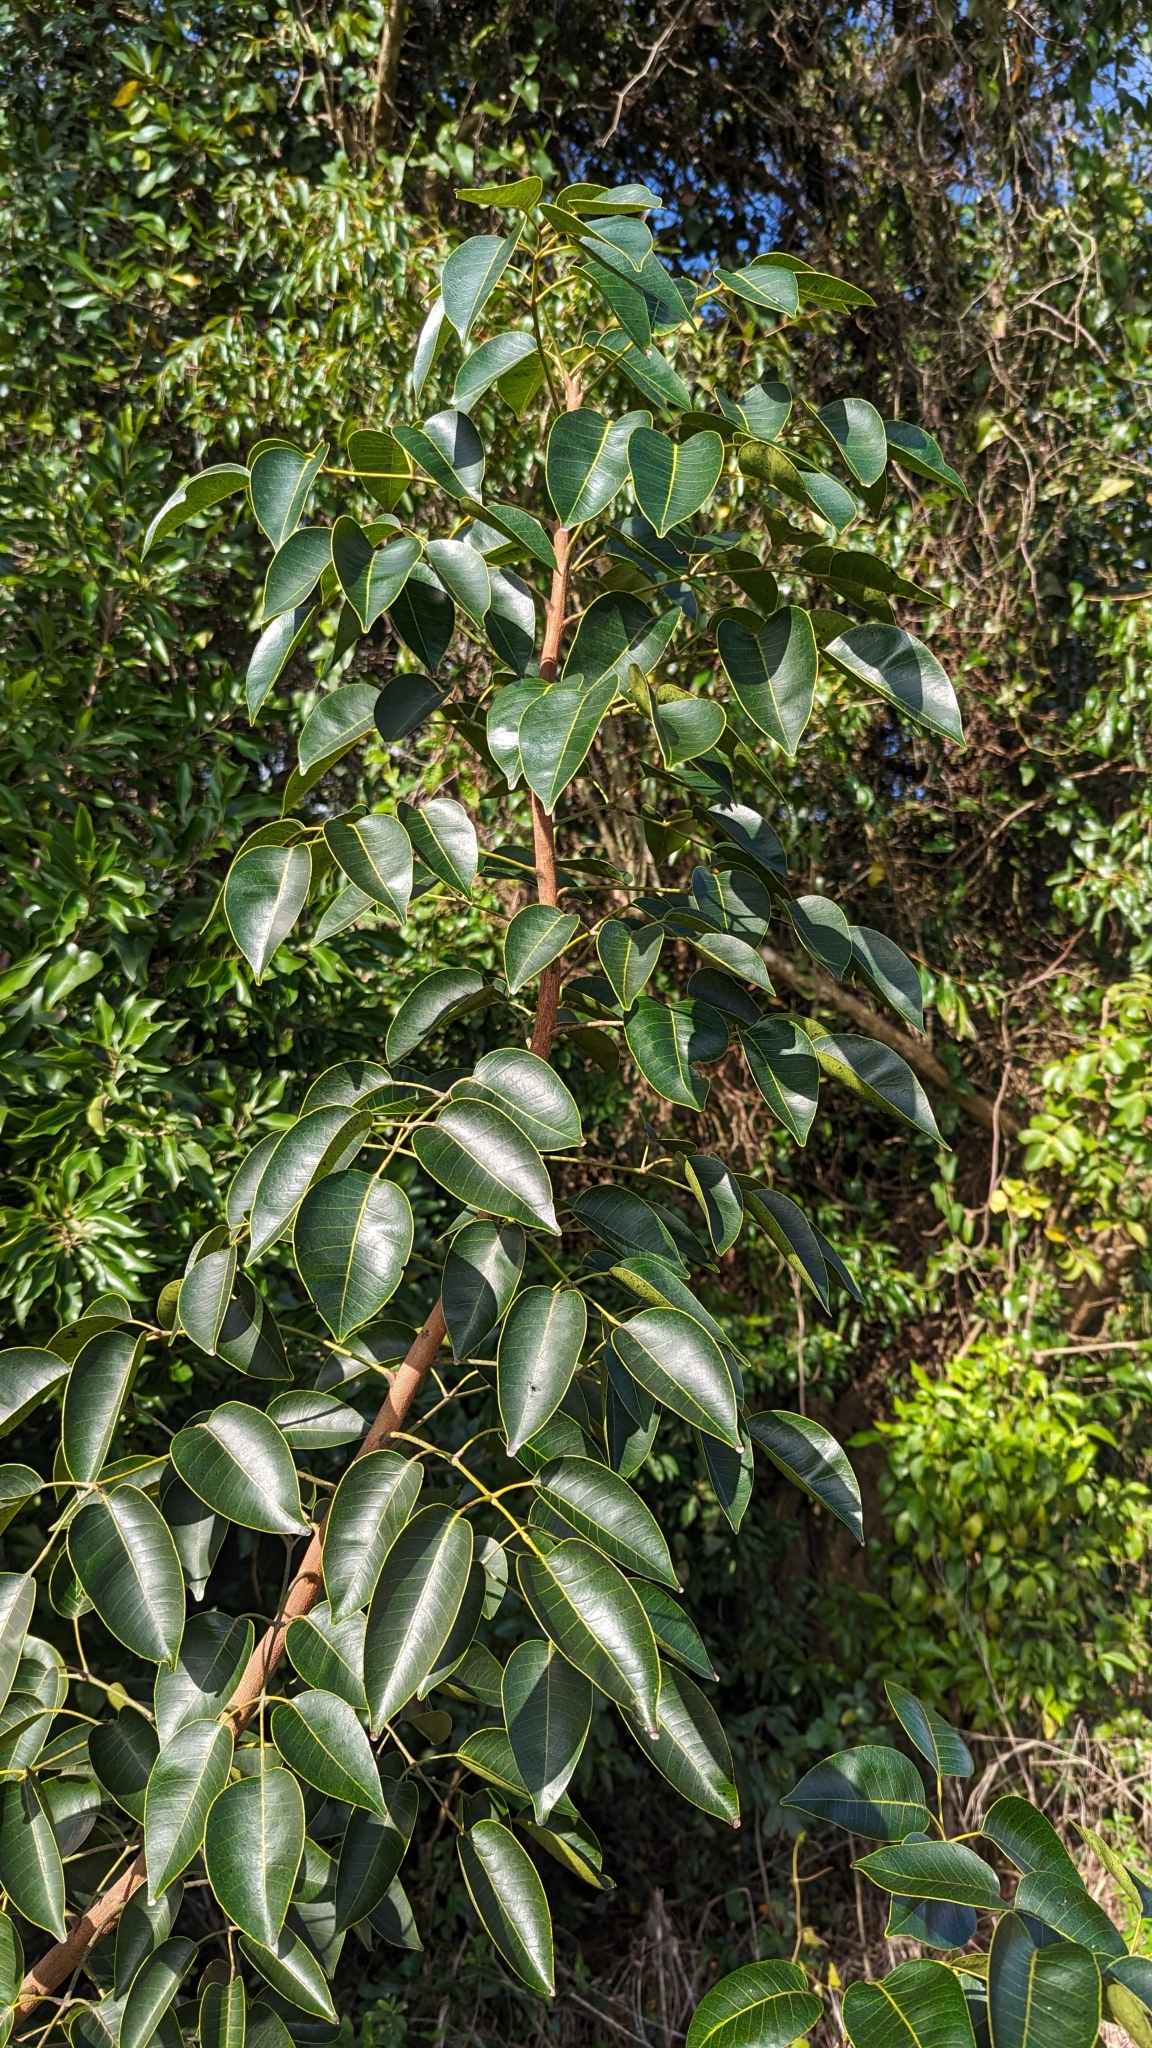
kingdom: Plantae
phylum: Tracheophyta
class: Magnoliopsida
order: Sapindales
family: Anacardiaceae
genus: Metopium
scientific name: Metopium toxiferum
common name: Florida poisontree
